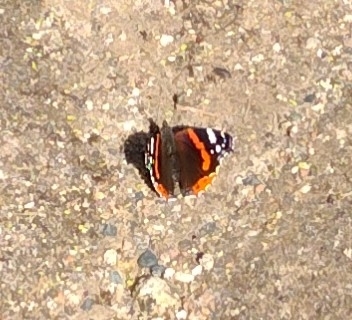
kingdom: Animalia
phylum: Arthropoda
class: Insecta
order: Lepidoptera
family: Nymphalidae
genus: Vanessa
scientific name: Vanessa atalanta
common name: Red admiral
